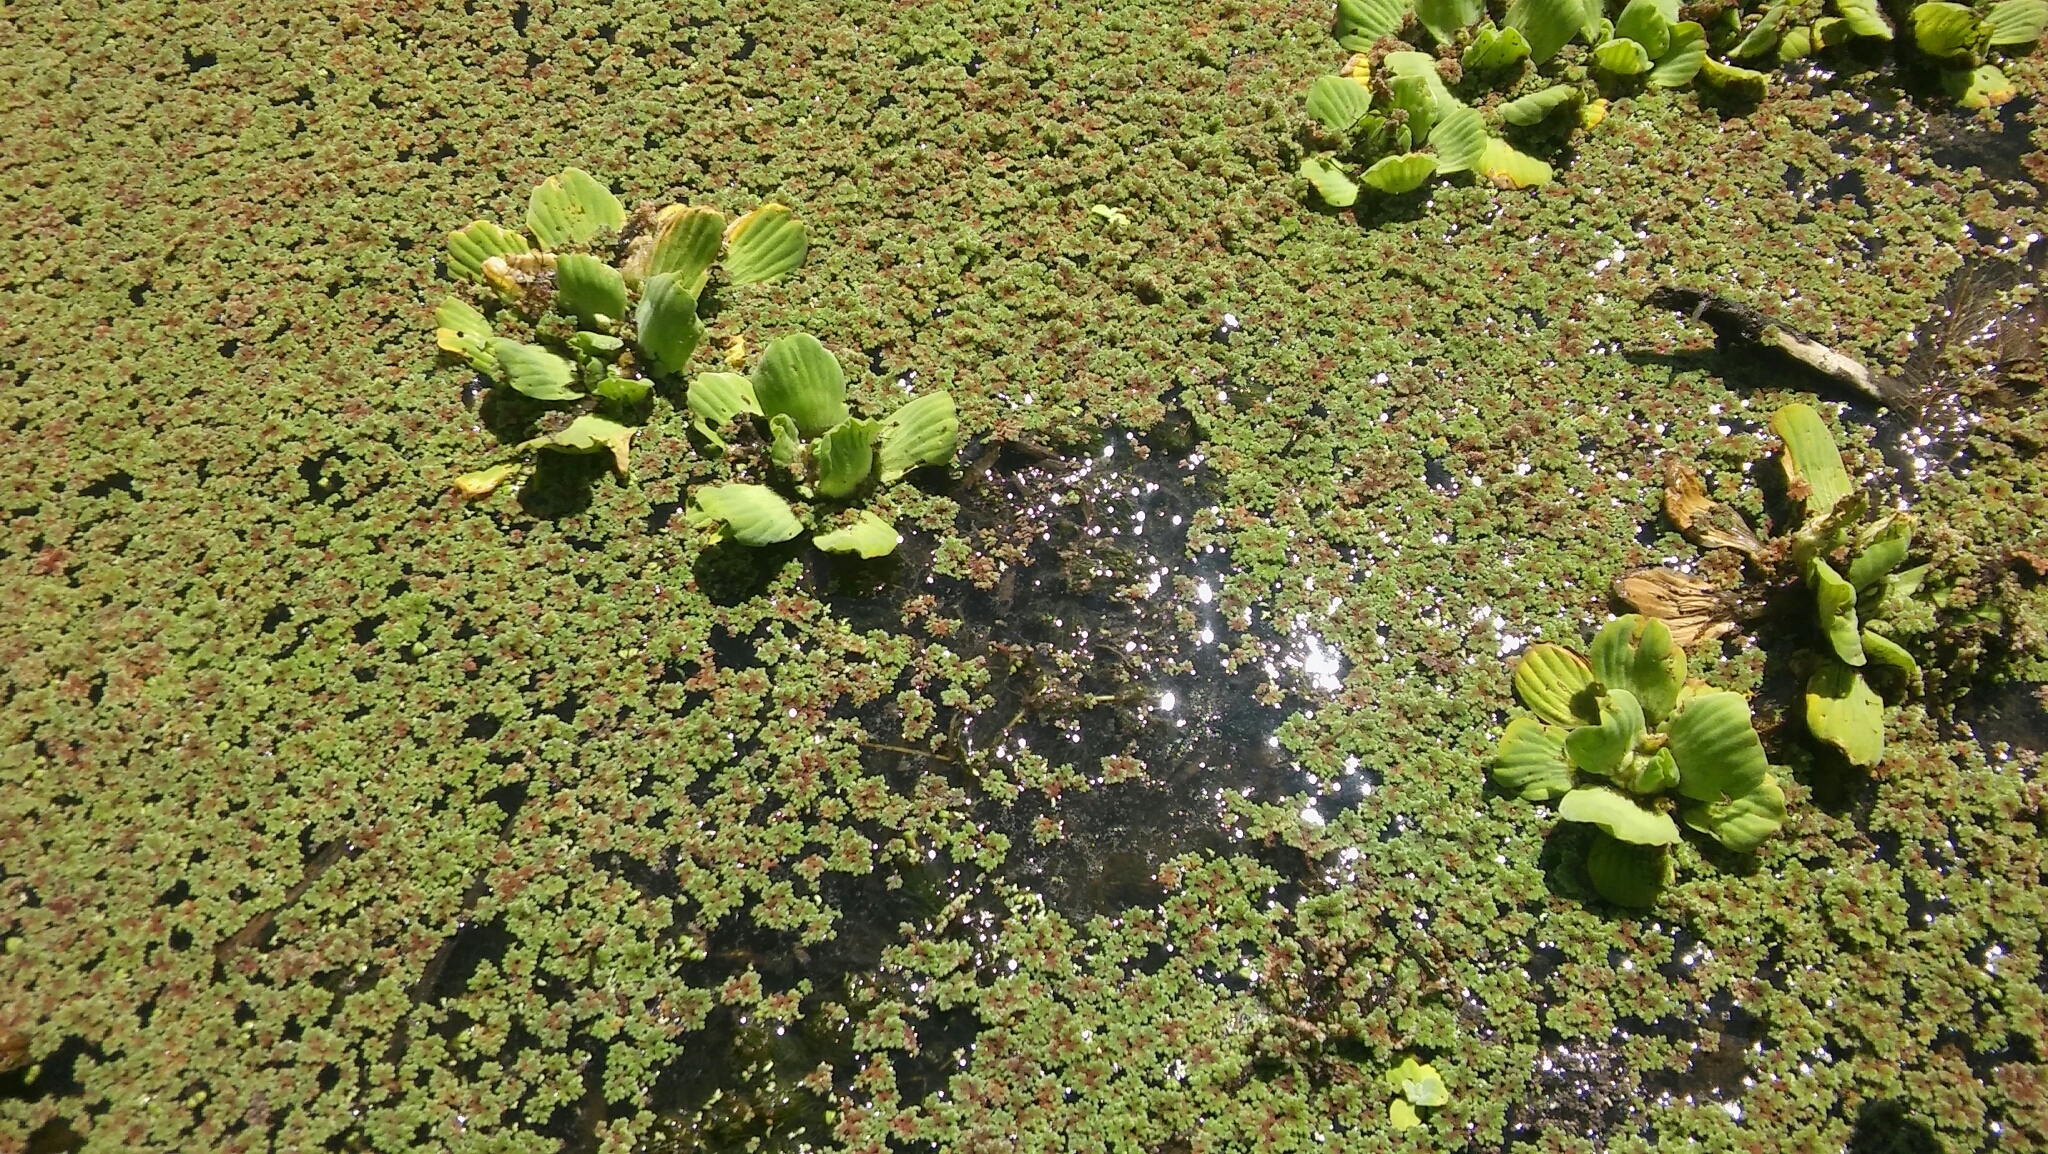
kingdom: Plantae
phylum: Tracheophyta
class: Liliopsida
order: Alismatales
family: Araceae
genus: Pistia
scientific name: Pistia stratiotes
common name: Water lettuce
